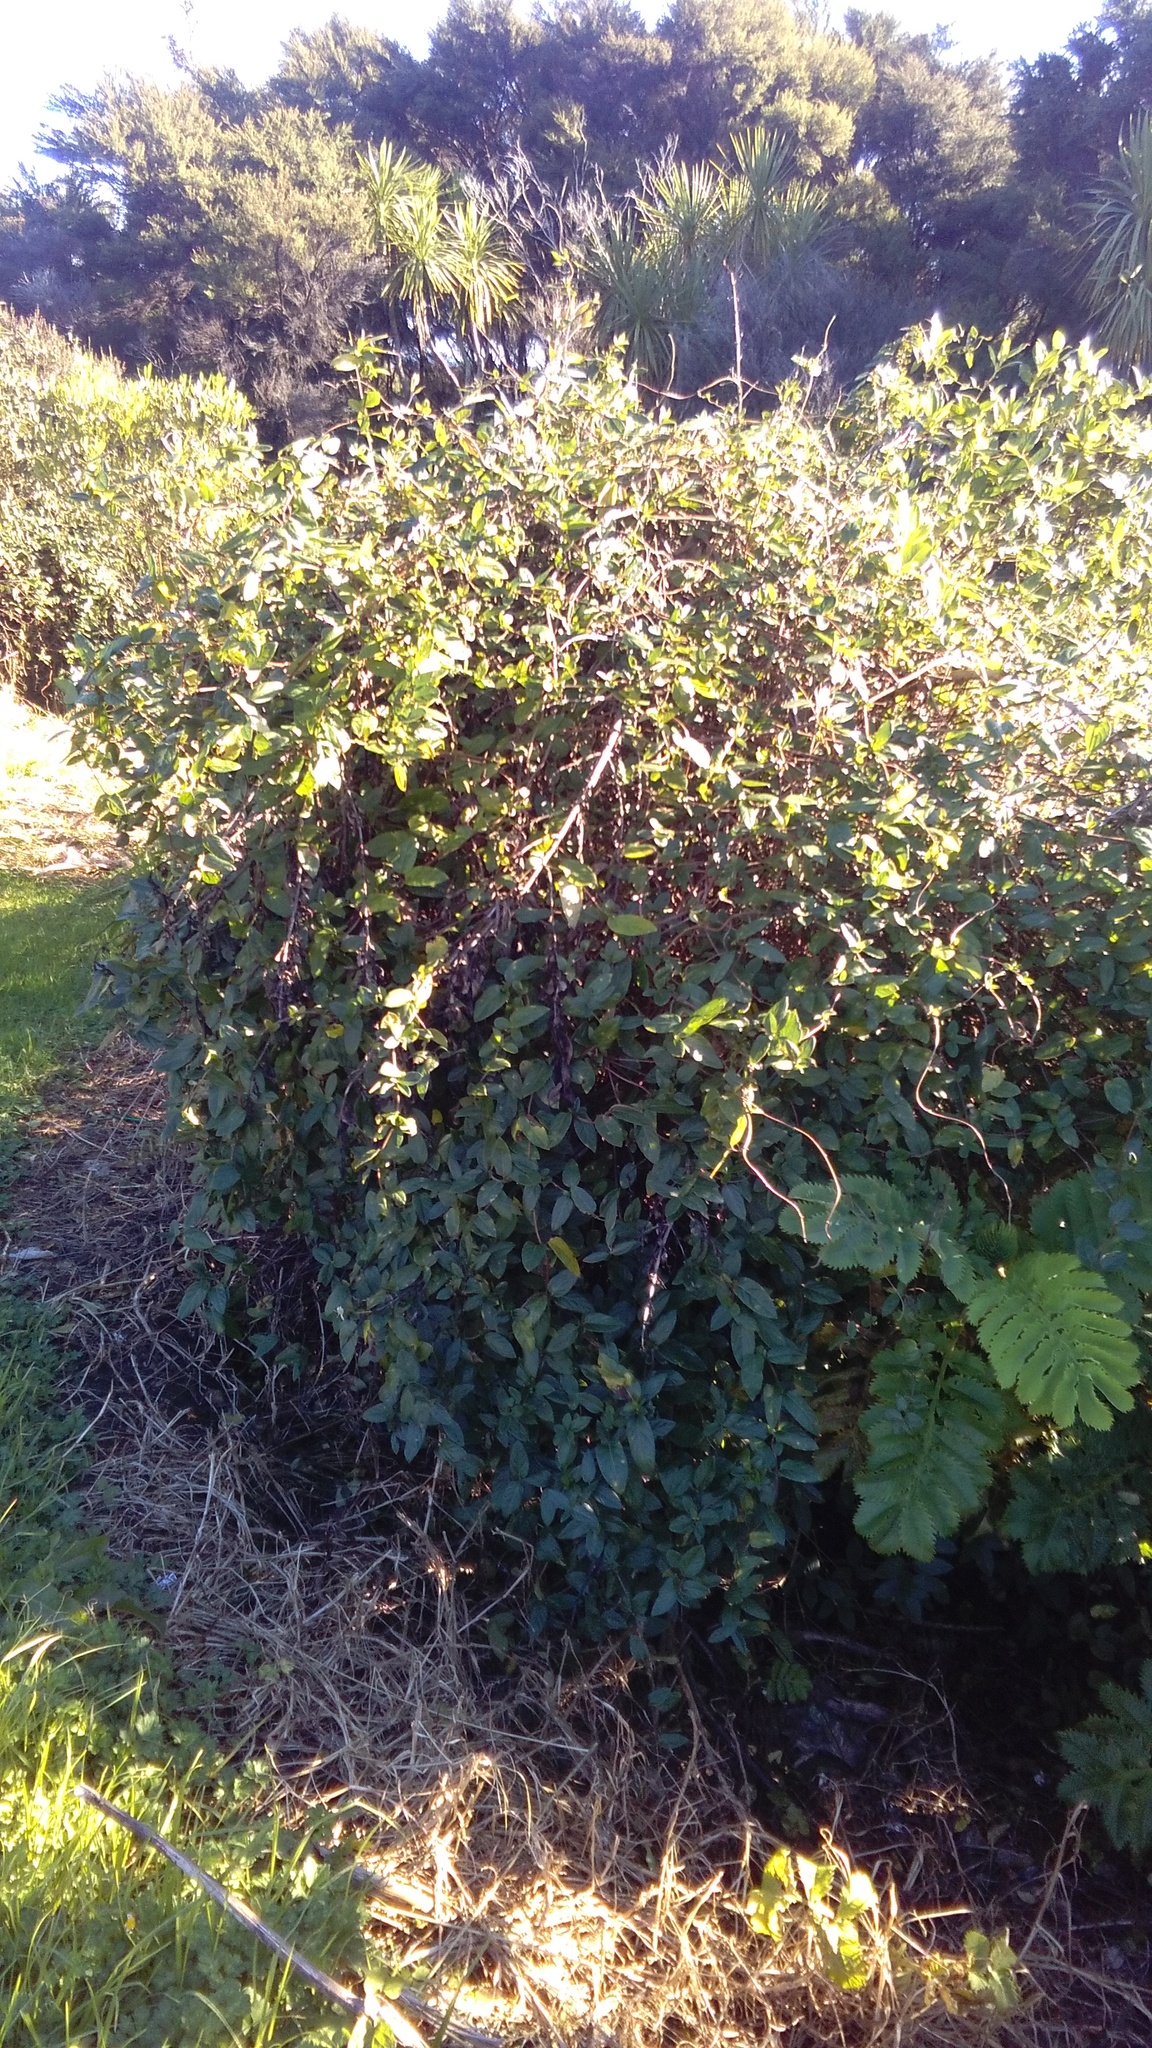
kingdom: Plantae
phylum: Tracheophyta
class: Magnoliopsida
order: Dipsacales
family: Caprifoliaceae
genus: Lonicera
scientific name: Lonicera japonica
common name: Japanese honeysuckle
